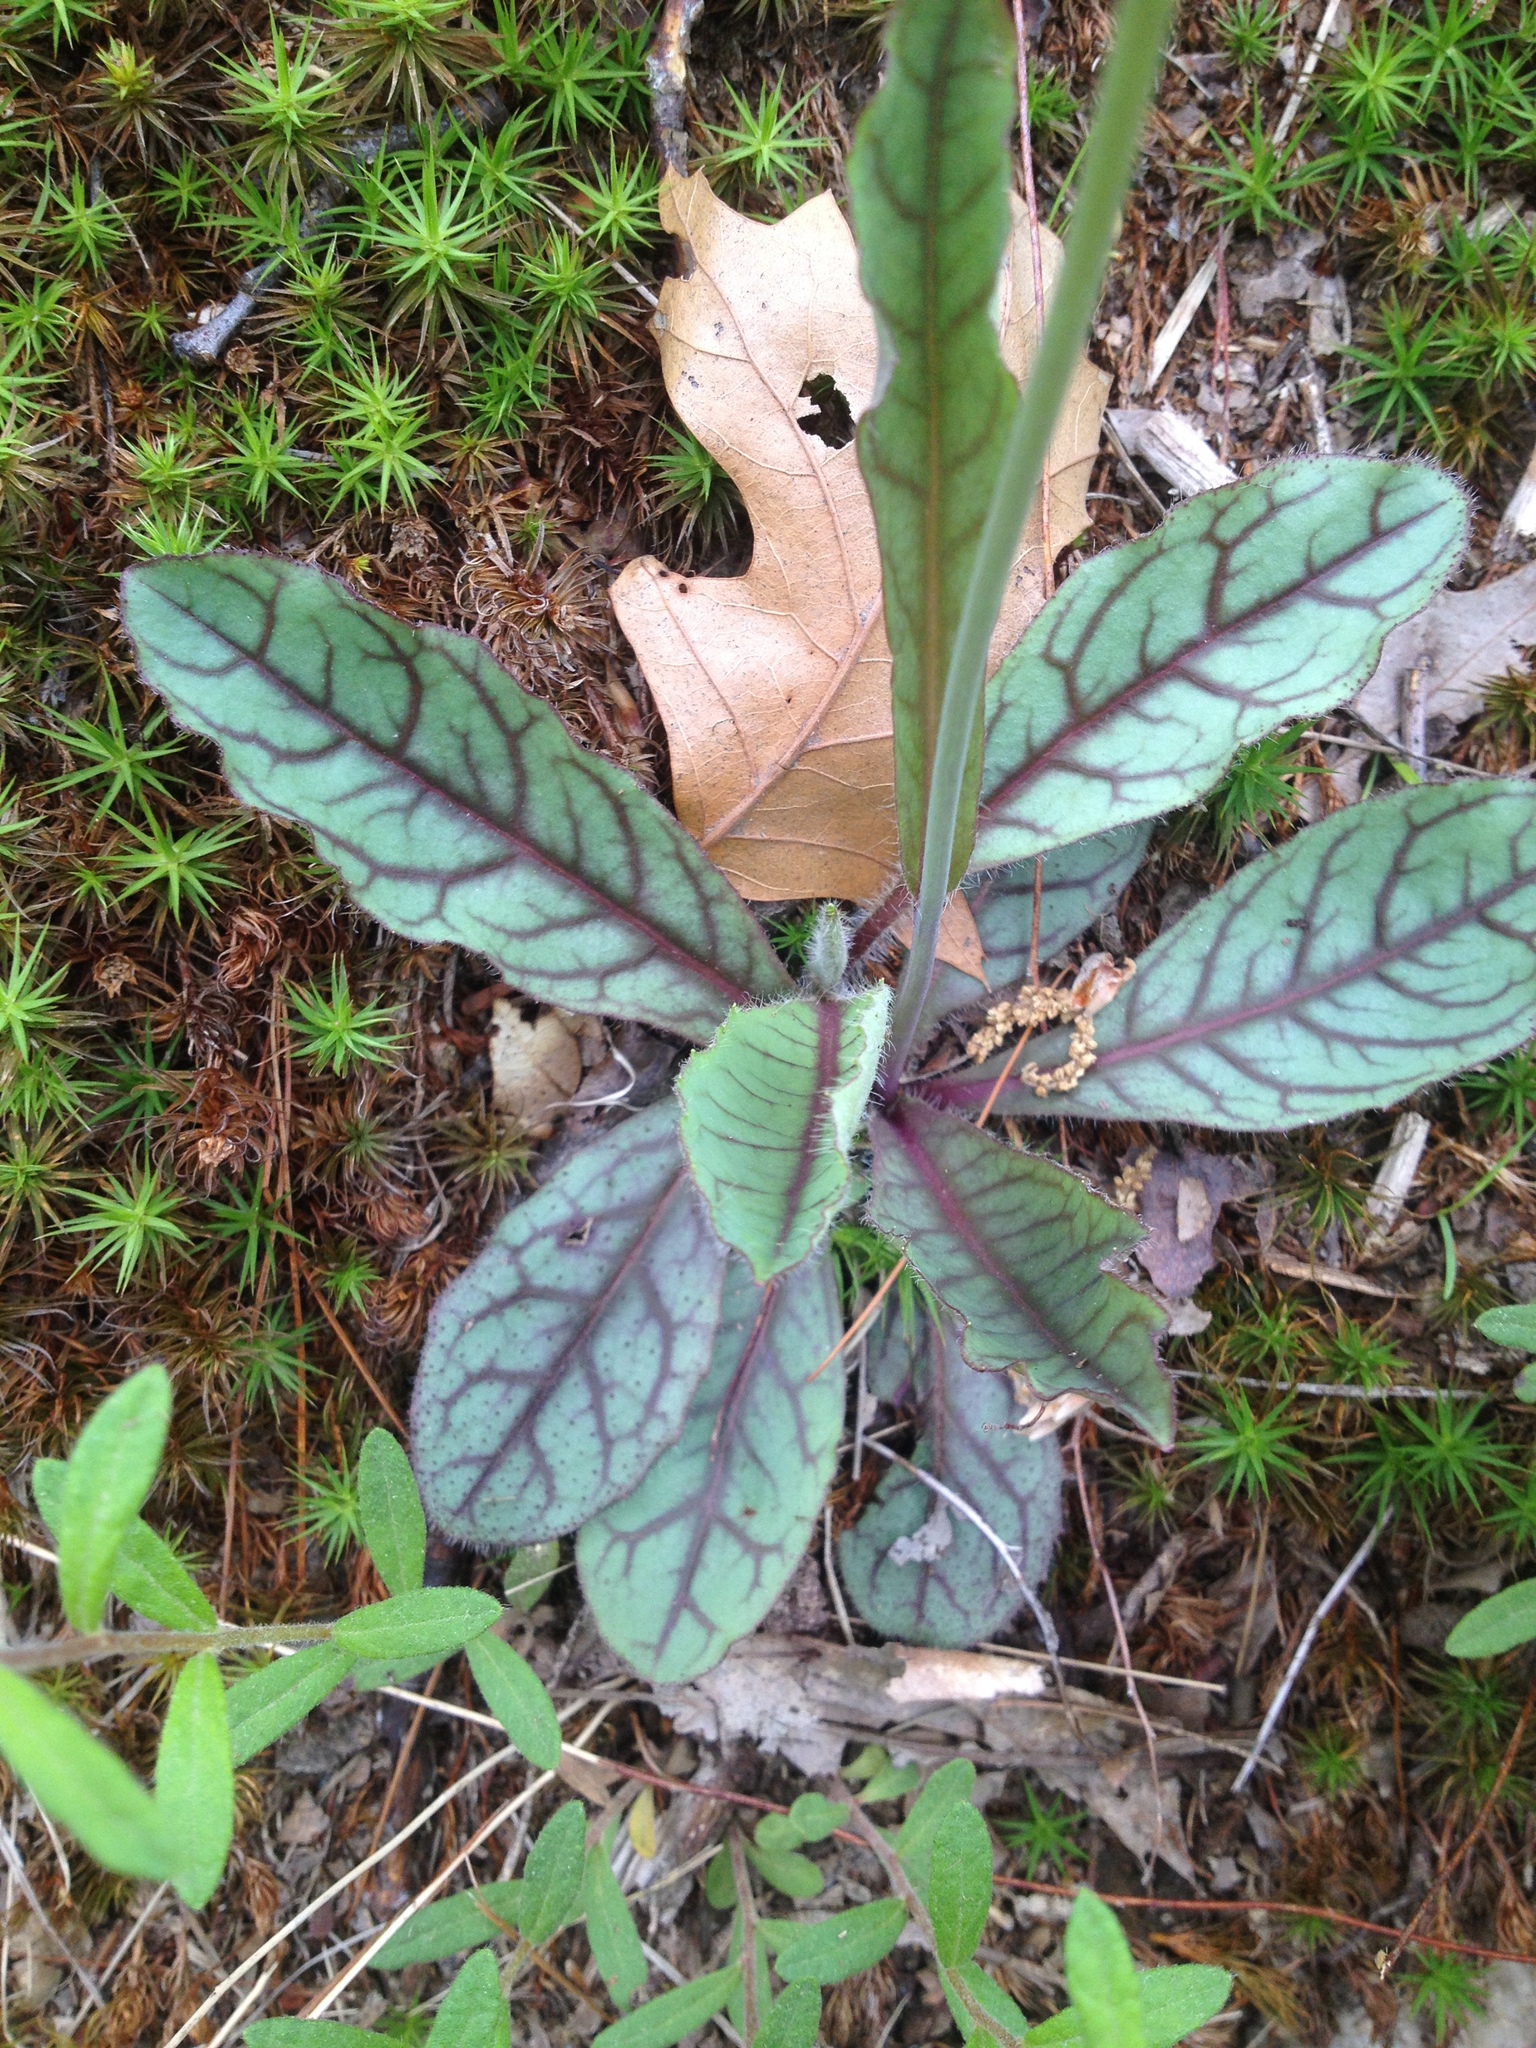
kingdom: Plantae
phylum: Tracheophyta
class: Magnoliopsida
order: Asterales
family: Asteraceae
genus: Hieracium
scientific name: Hieracium venosum
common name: Rattlesnake hawkweed
